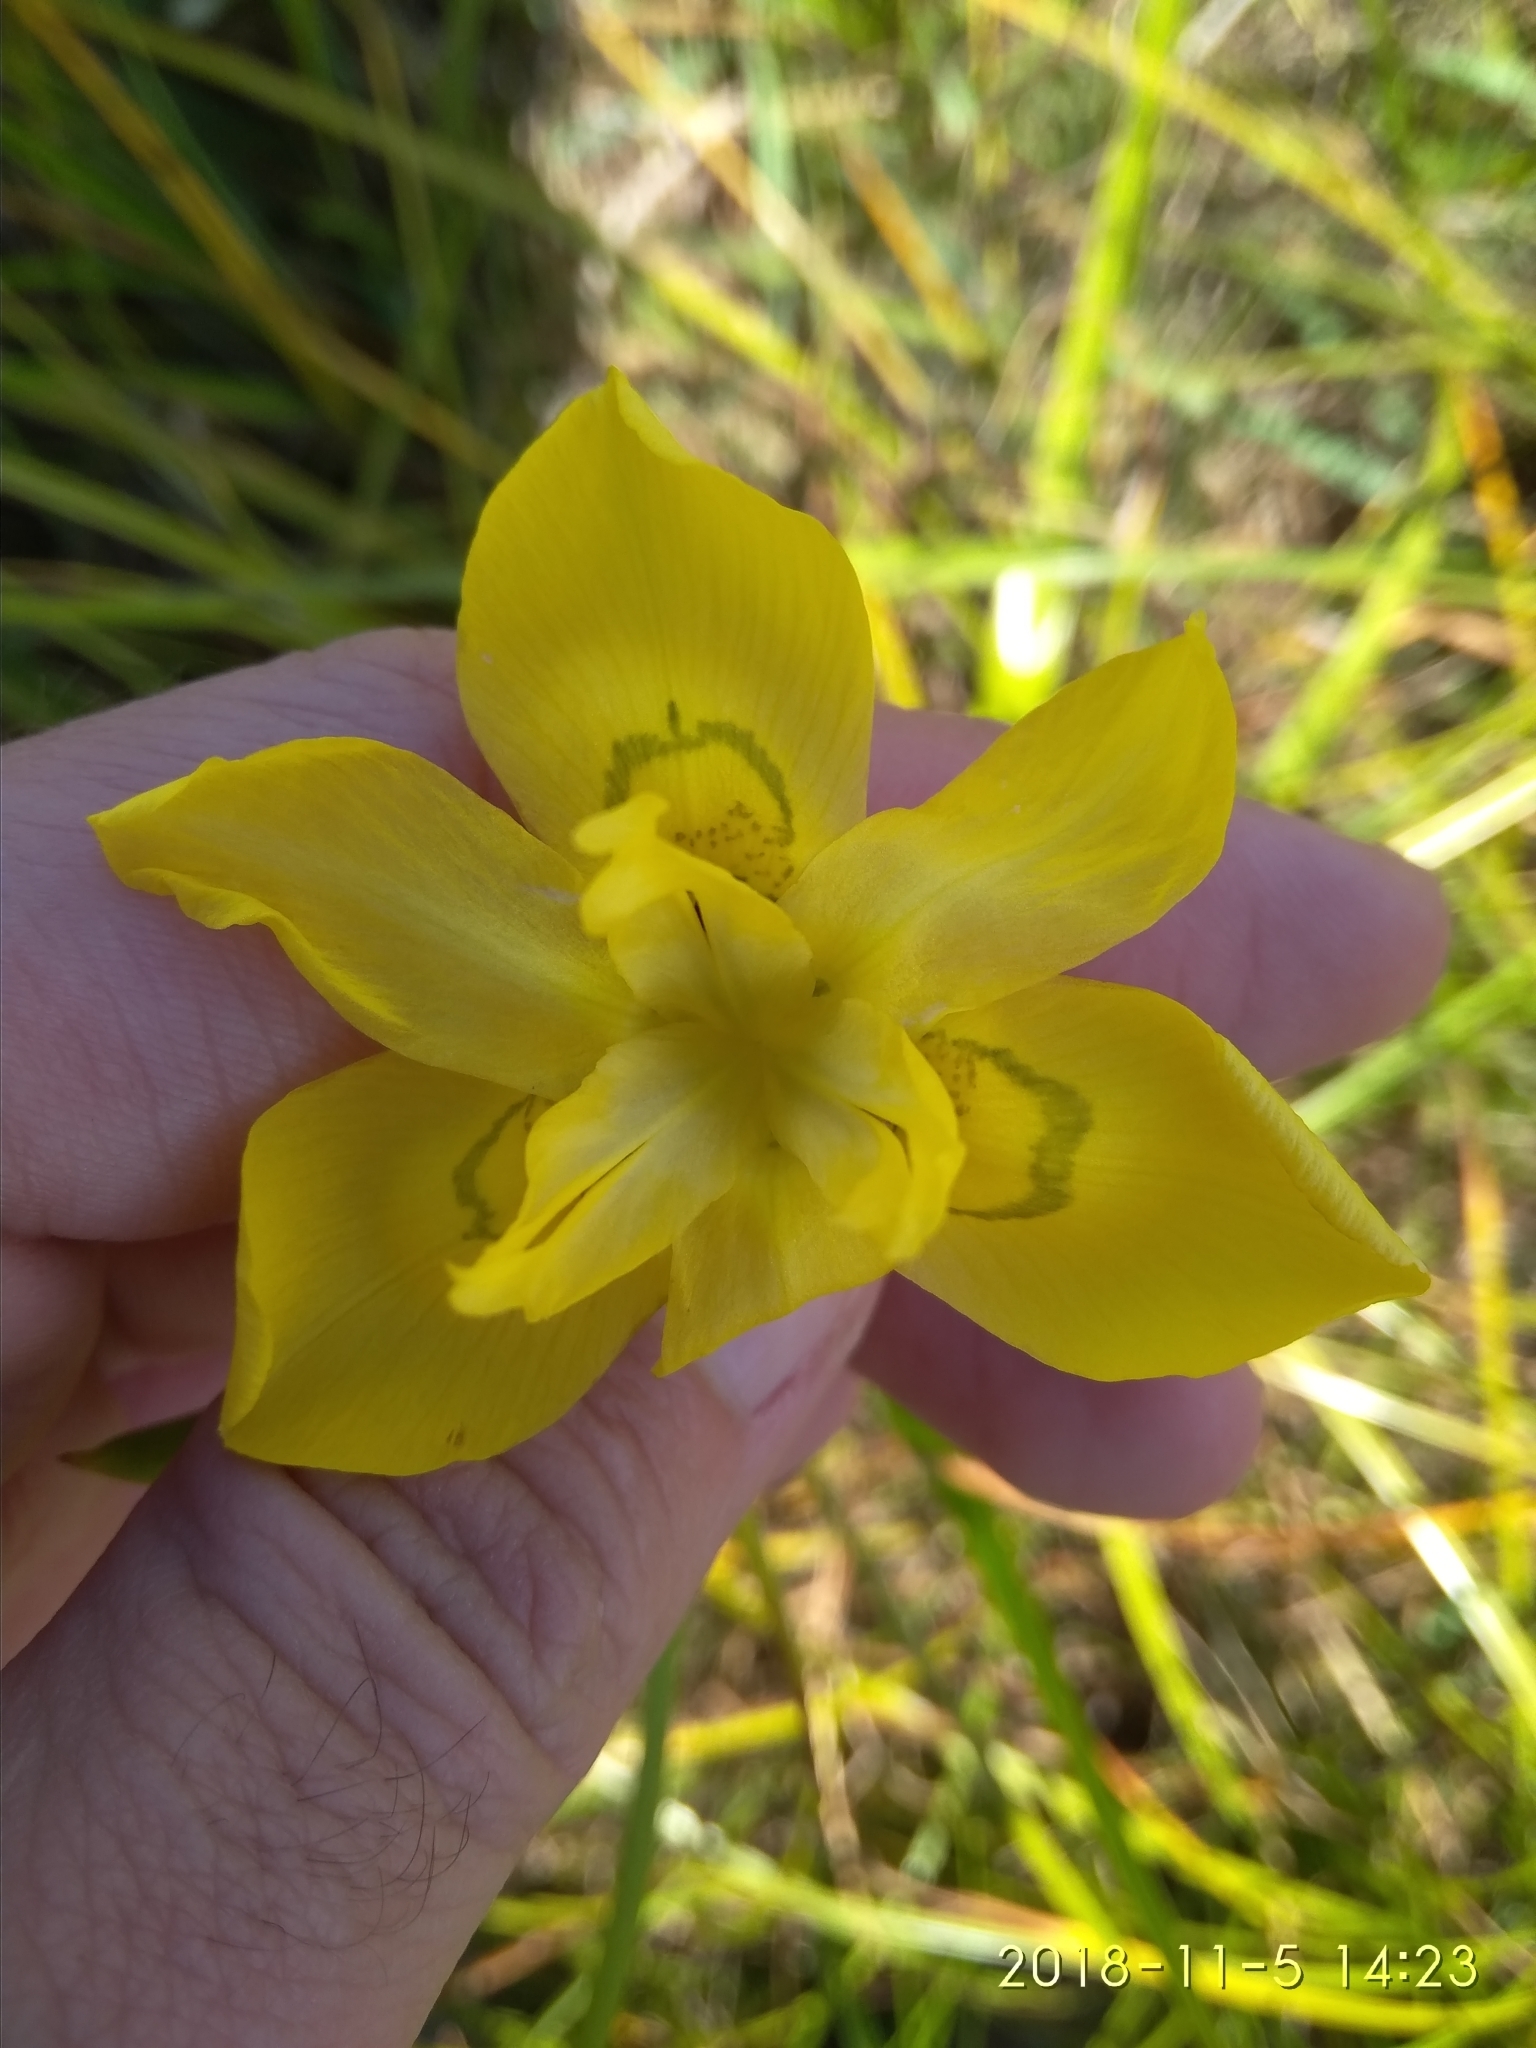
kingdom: Plantae
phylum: Tracheophyta
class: Liliopsida
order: Asparagales
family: Iridaceae
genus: Moraea
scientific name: Moraea ramosissima
